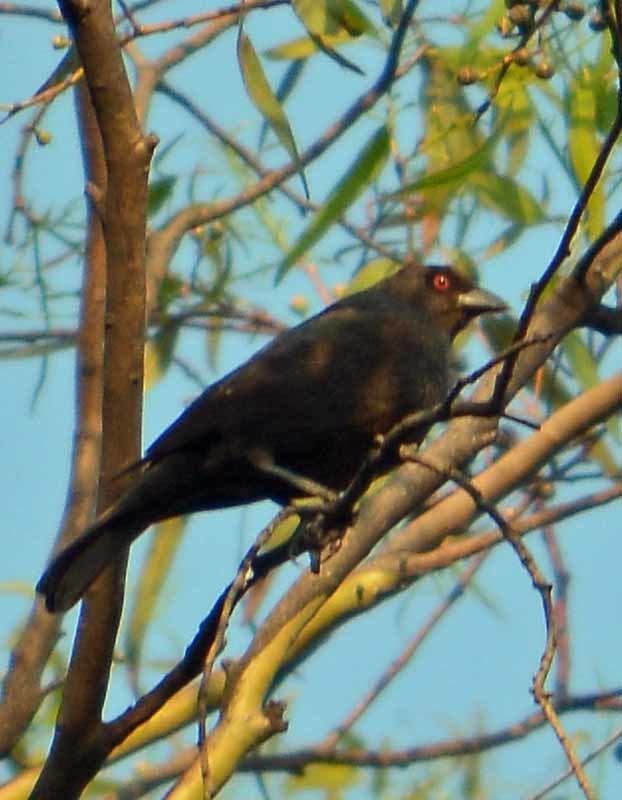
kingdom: Animalia
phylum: Chordata
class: Aves
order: Passeriformes
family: Icteridae
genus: Molothrus
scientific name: Molothrus aeneus
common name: Bronzed cowbird
